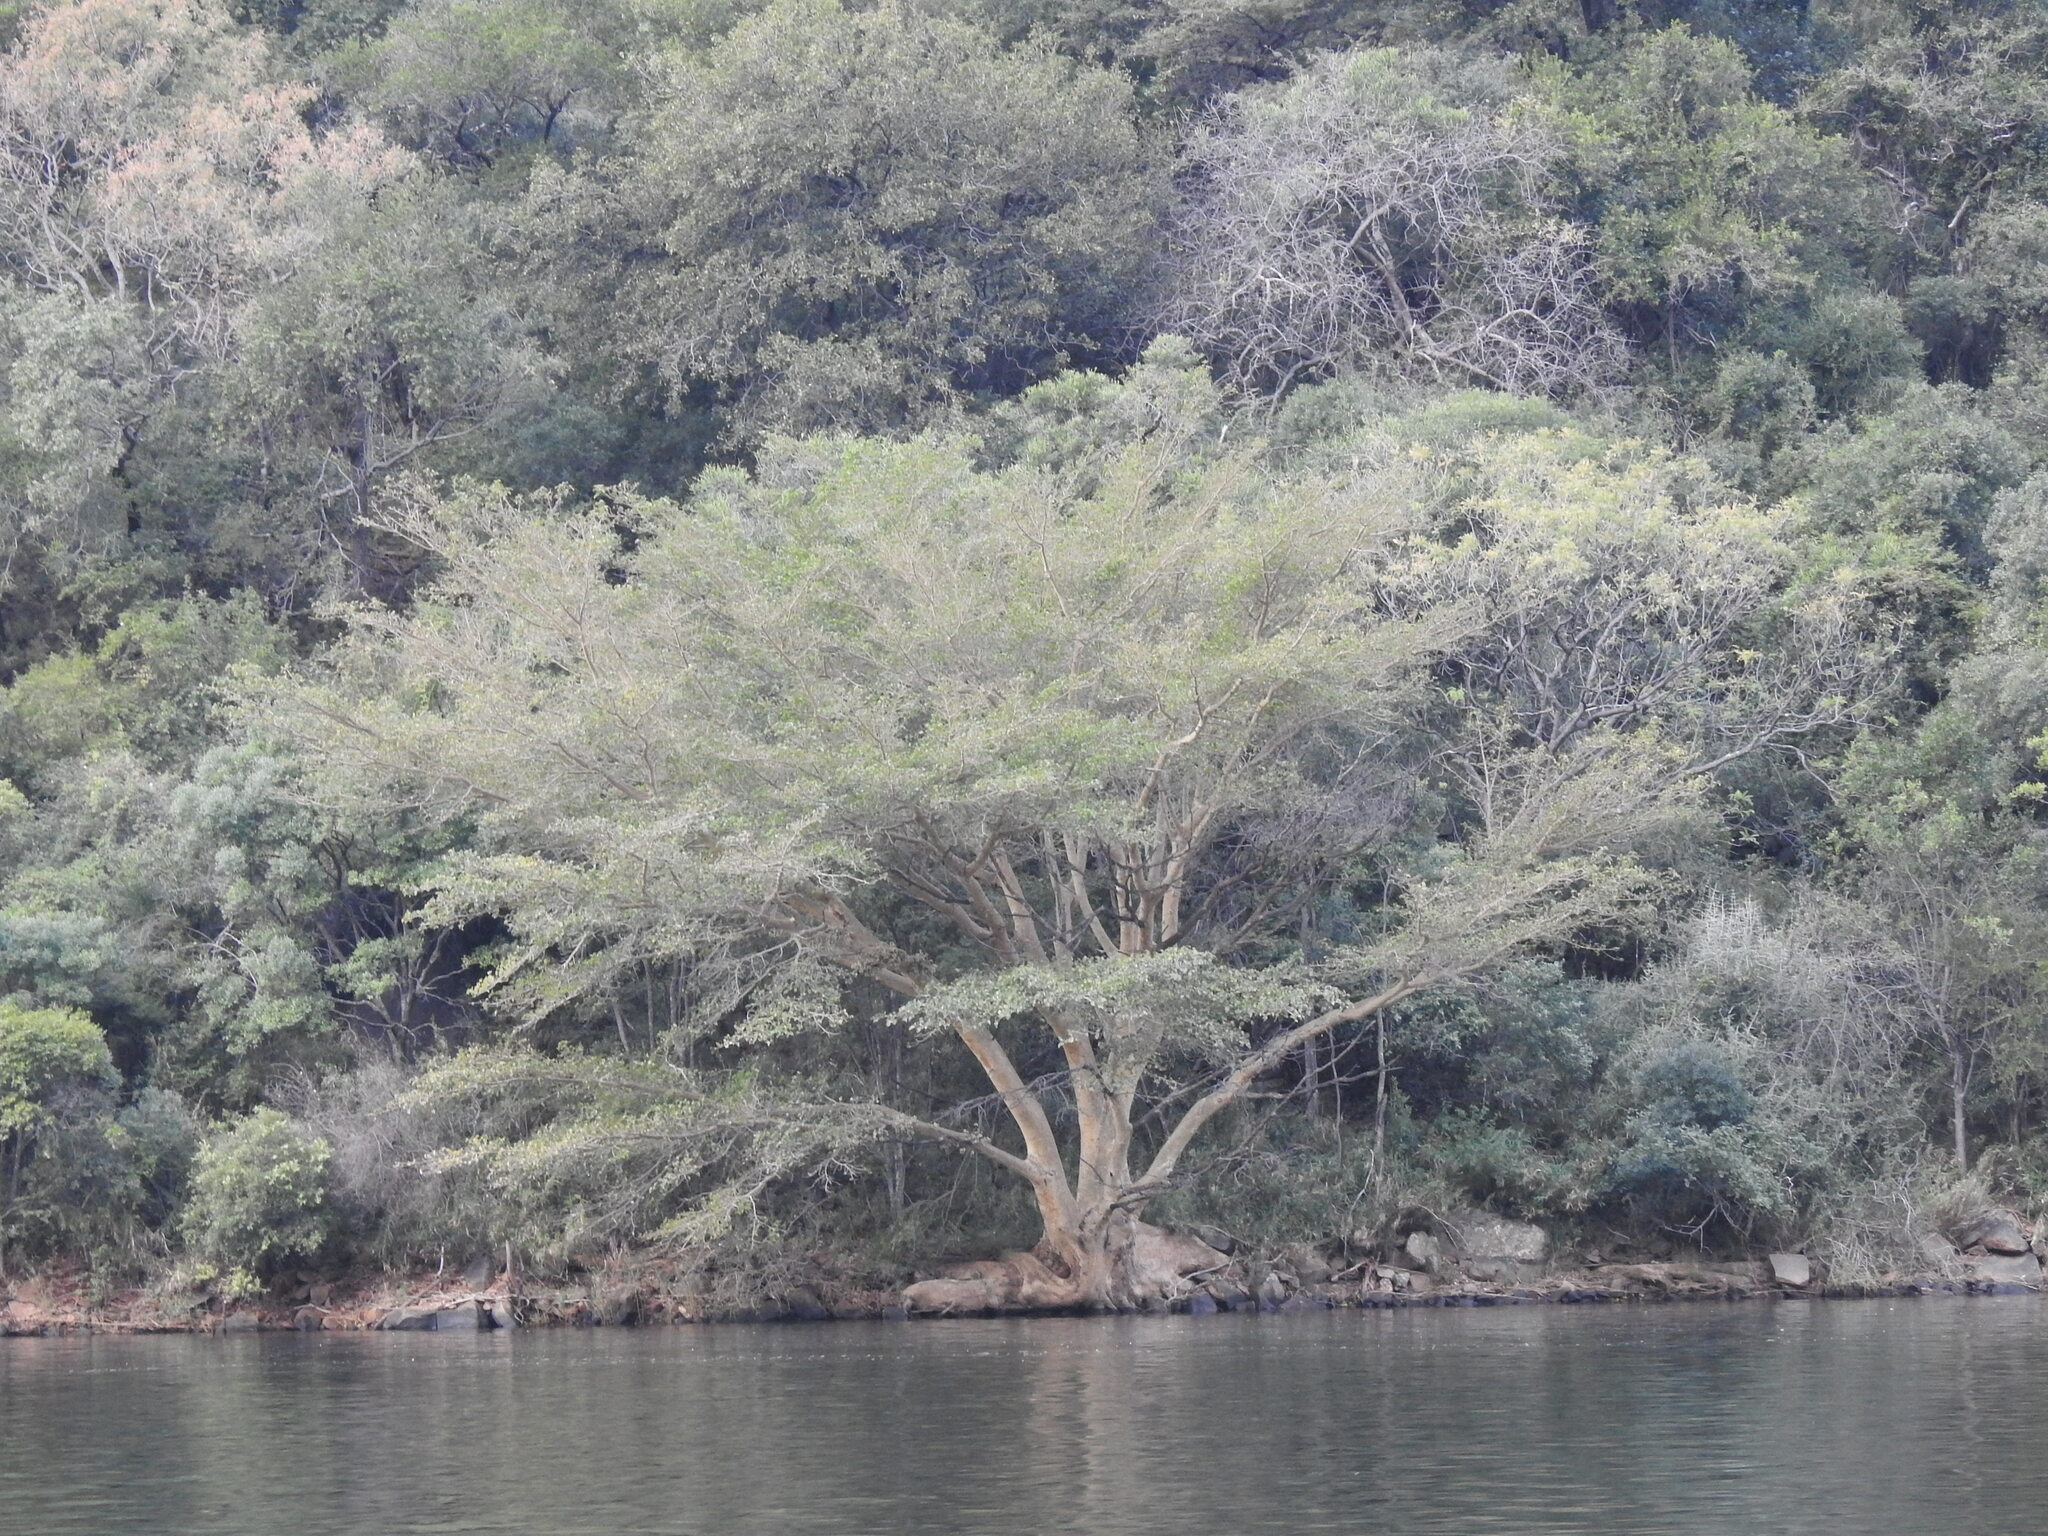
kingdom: Plantae
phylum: Tracheophyta
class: Magnoliopsida
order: Rosales
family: Moraceae
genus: Ficus
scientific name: Ficus sycomorus
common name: Sycomore
